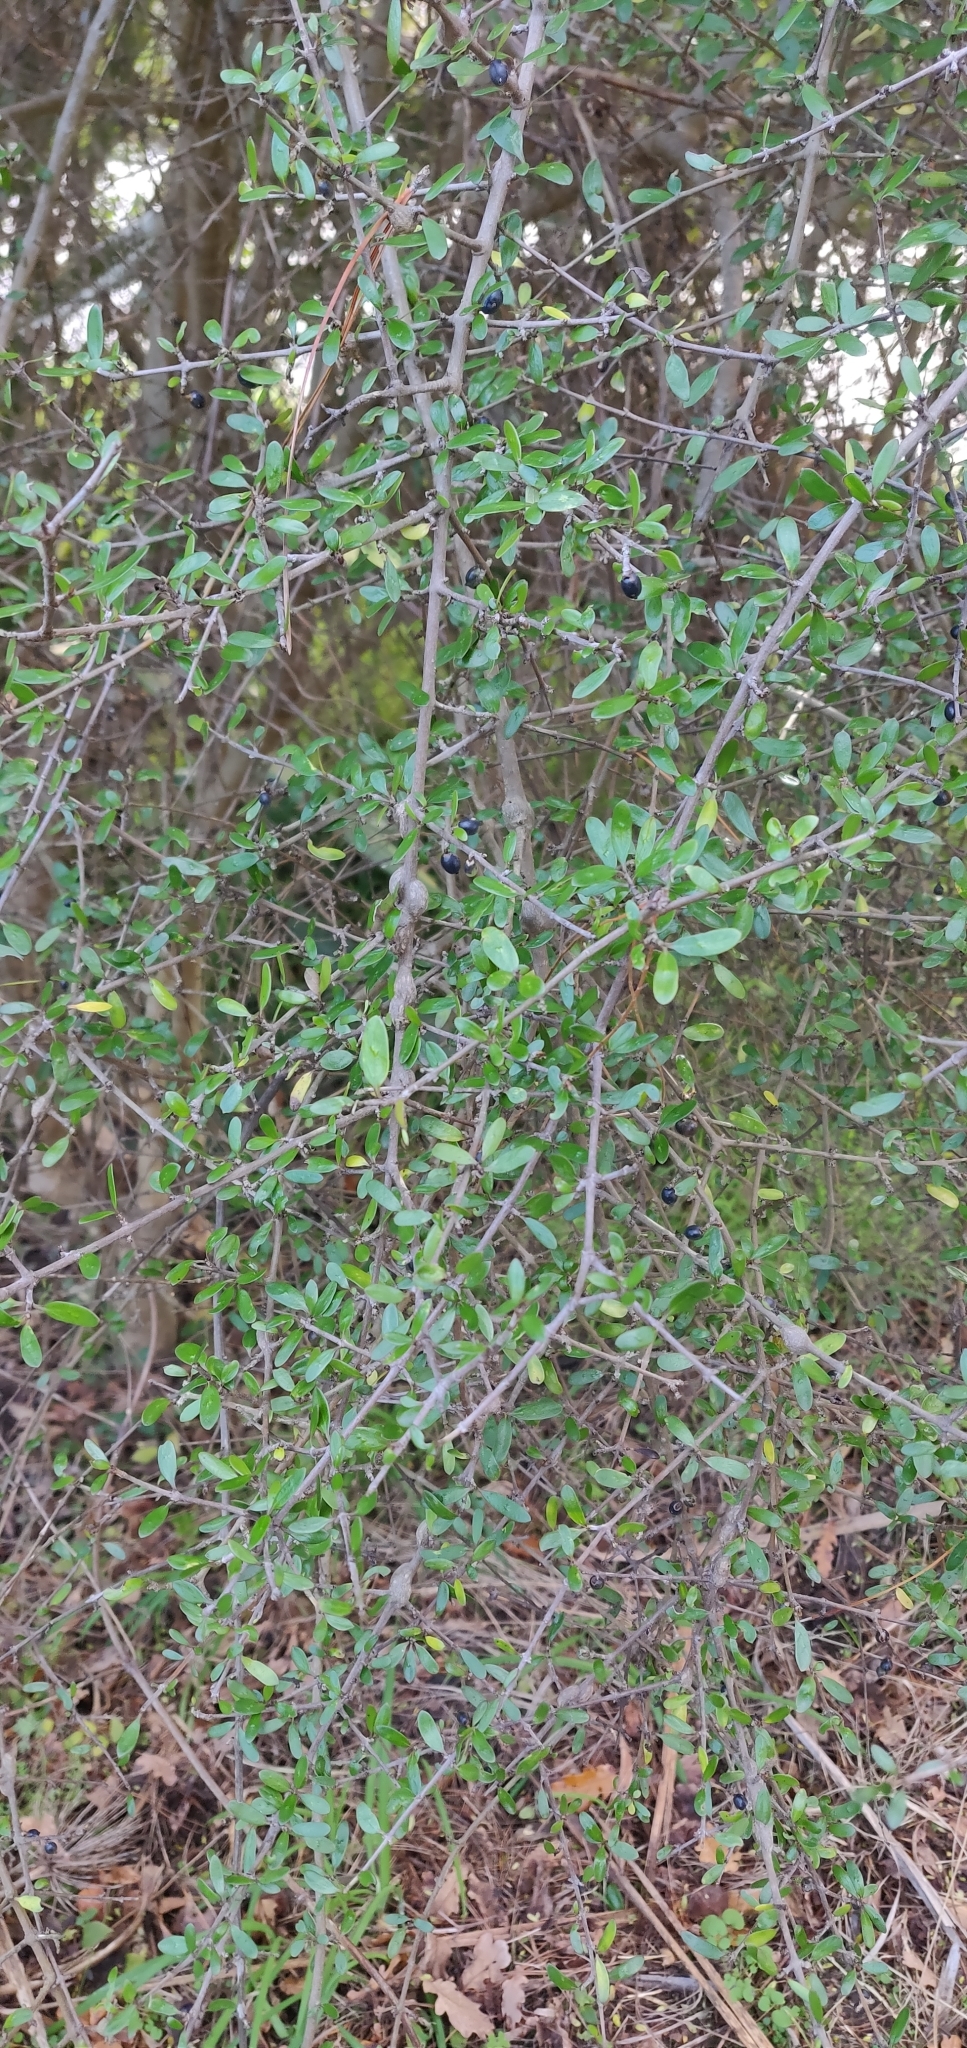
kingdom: Plantae
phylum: Tracheophyta
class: Magnoliopsida
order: Gentianales
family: Rubiaceae
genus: Coprosma
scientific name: Coprosma propinqua
